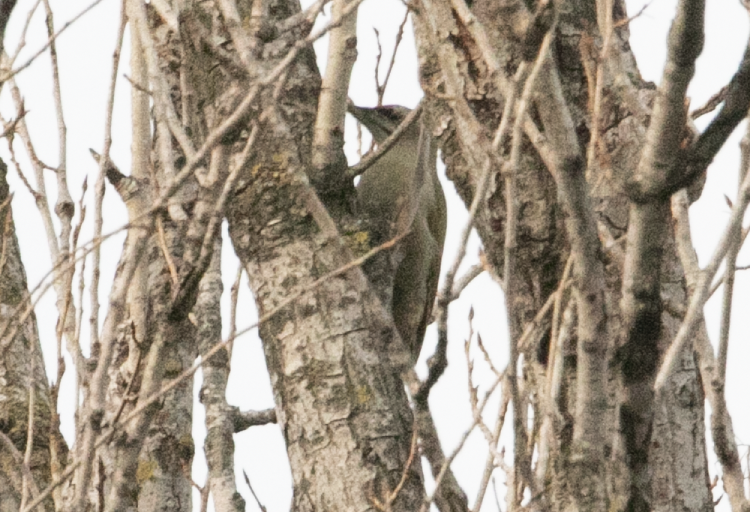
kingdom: Animalia
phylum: Chordata
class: Aves
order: Piciformes
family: Picidae
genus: Picus
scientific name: Picus canus
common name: Grey-headed woodpecker
